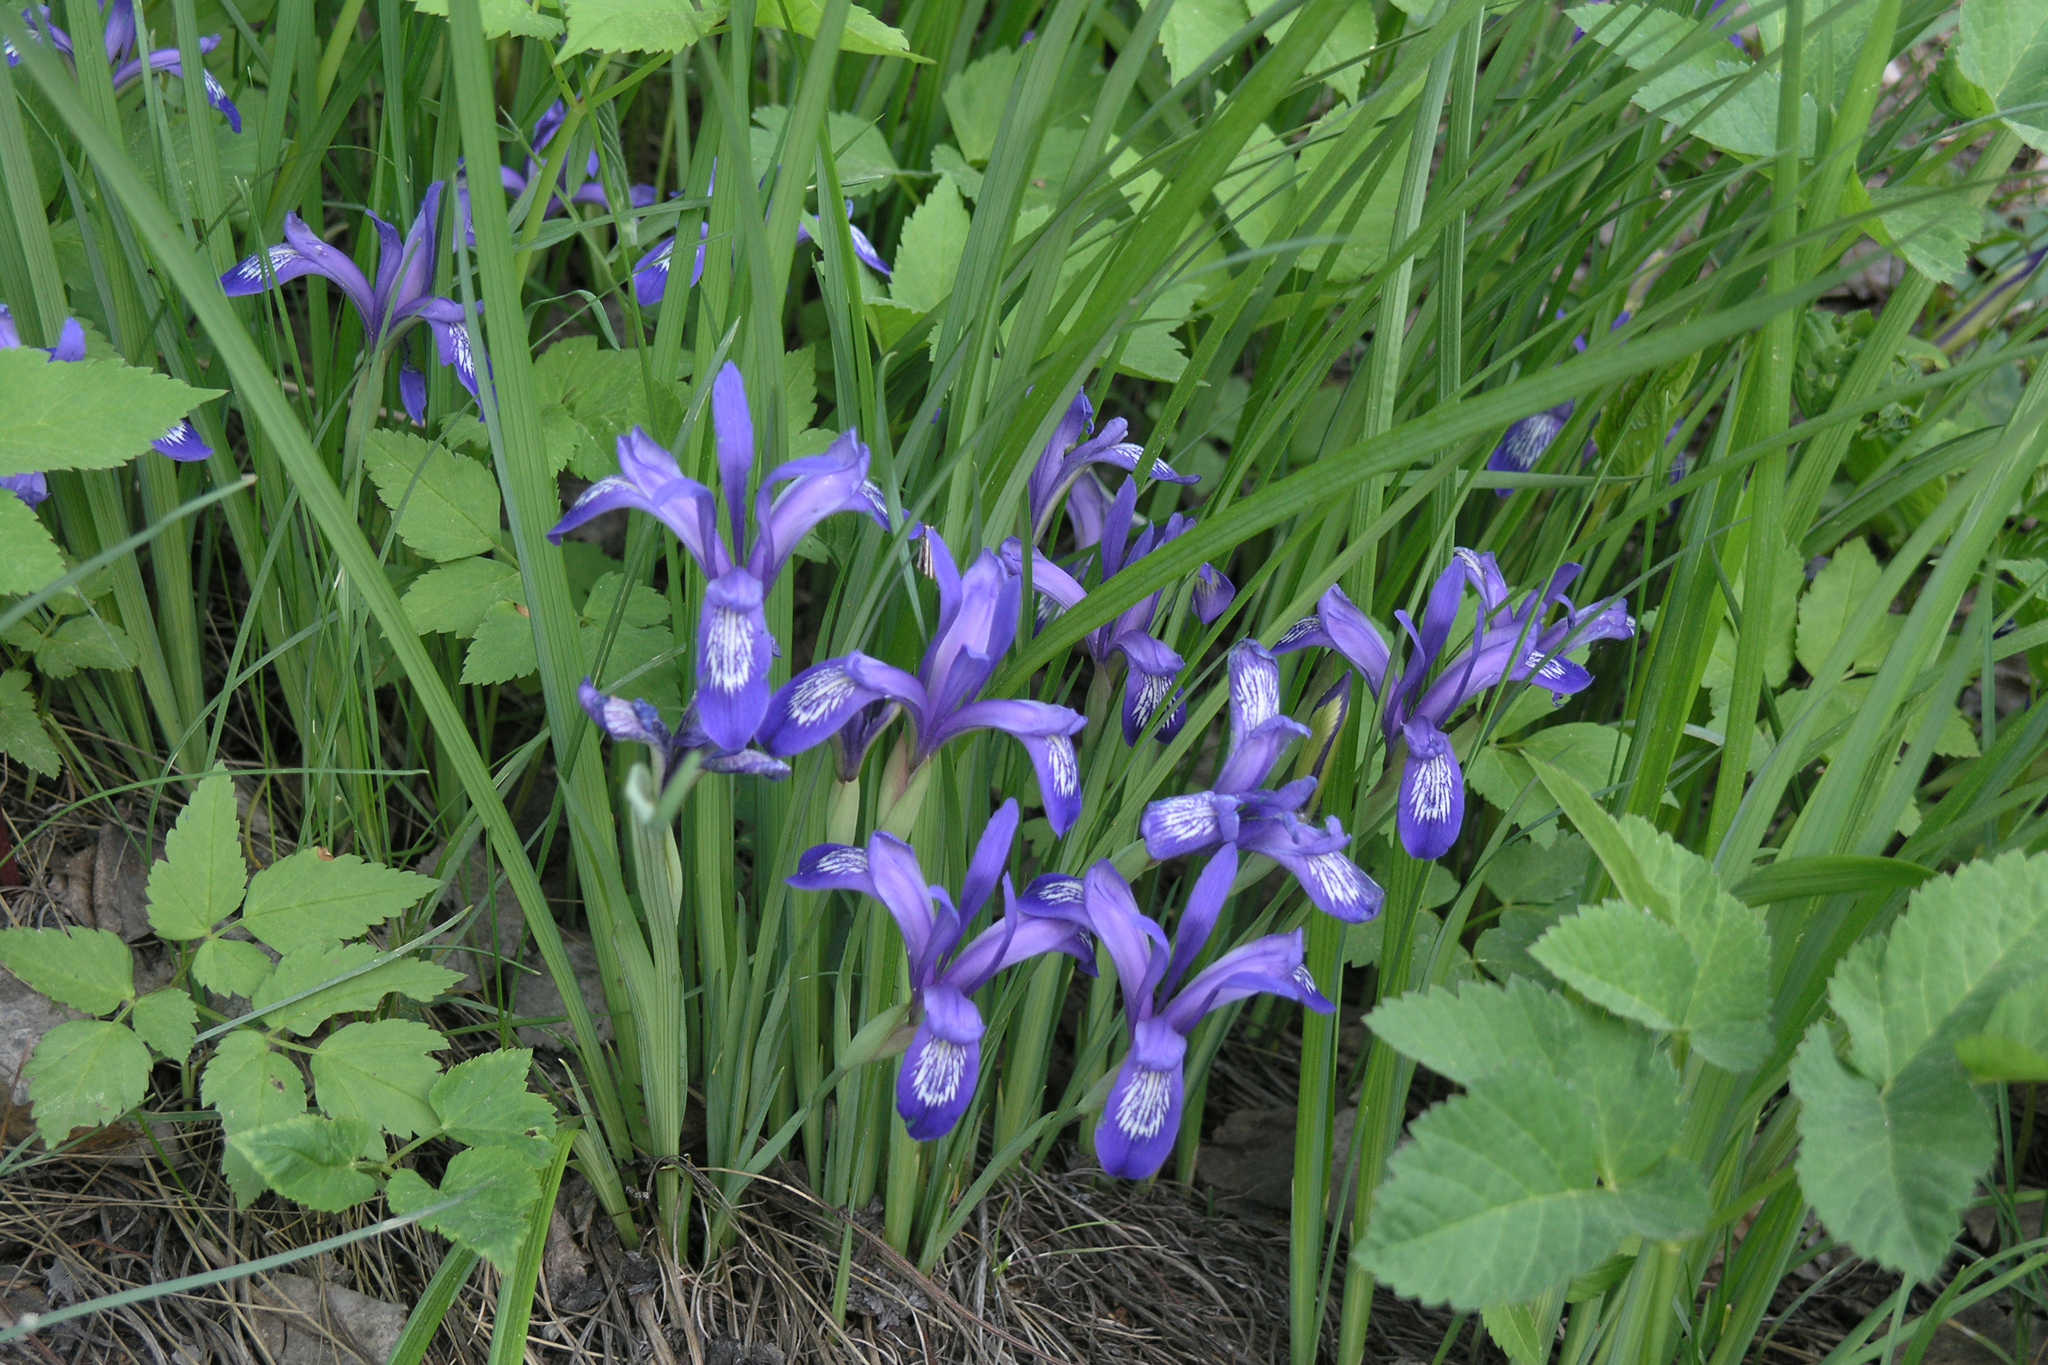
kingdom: Plantae
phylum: Tracheophyta
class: Liliopsida
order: Asparagales
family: Iridaceae
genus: Iris
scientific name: Iris ruthenica
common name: Purple-bract iris
